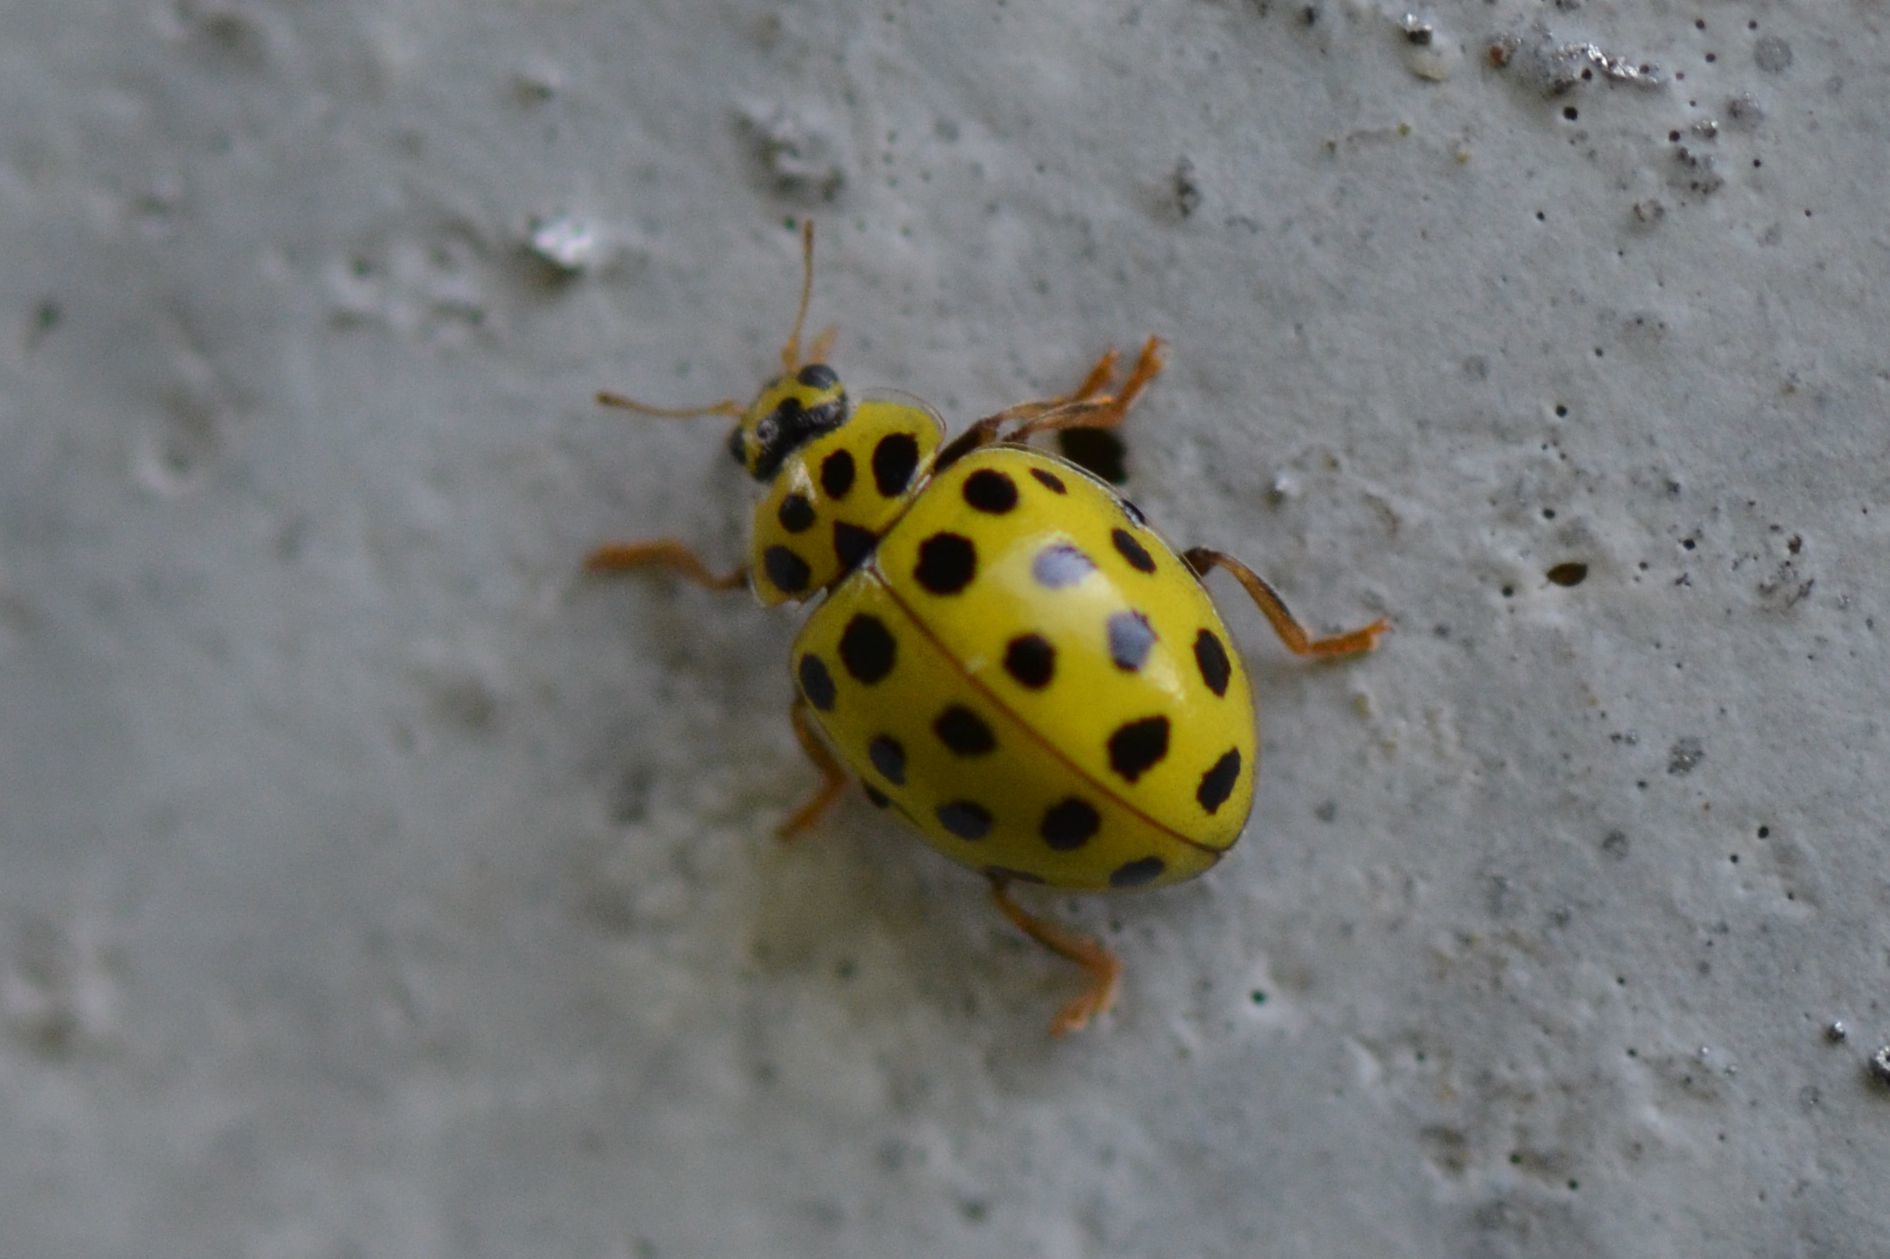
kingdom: Animalia
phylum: Arthropoda
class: Insecta
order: Coleoptera
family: Coccinellidae
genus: Psyllobora
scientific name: Psyllobora vigintiduopunctata
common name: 22-spot ladybird
